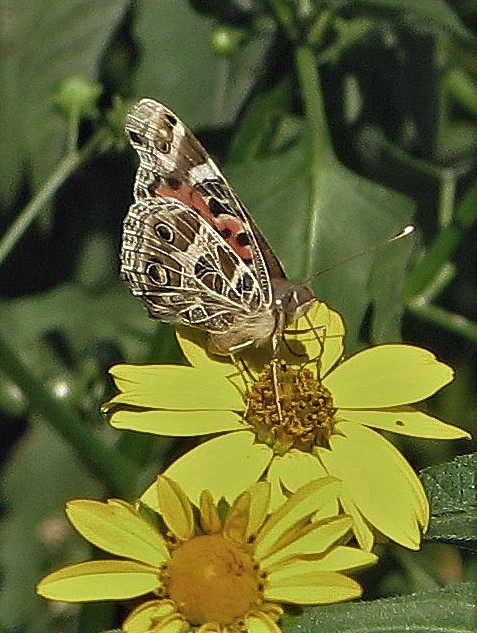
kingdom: Animalia
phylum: Arthropoda
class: Insecta
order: Lepidoptera
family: Nymphalidae
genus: Vanessa
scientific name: Vanessa braziliensis
